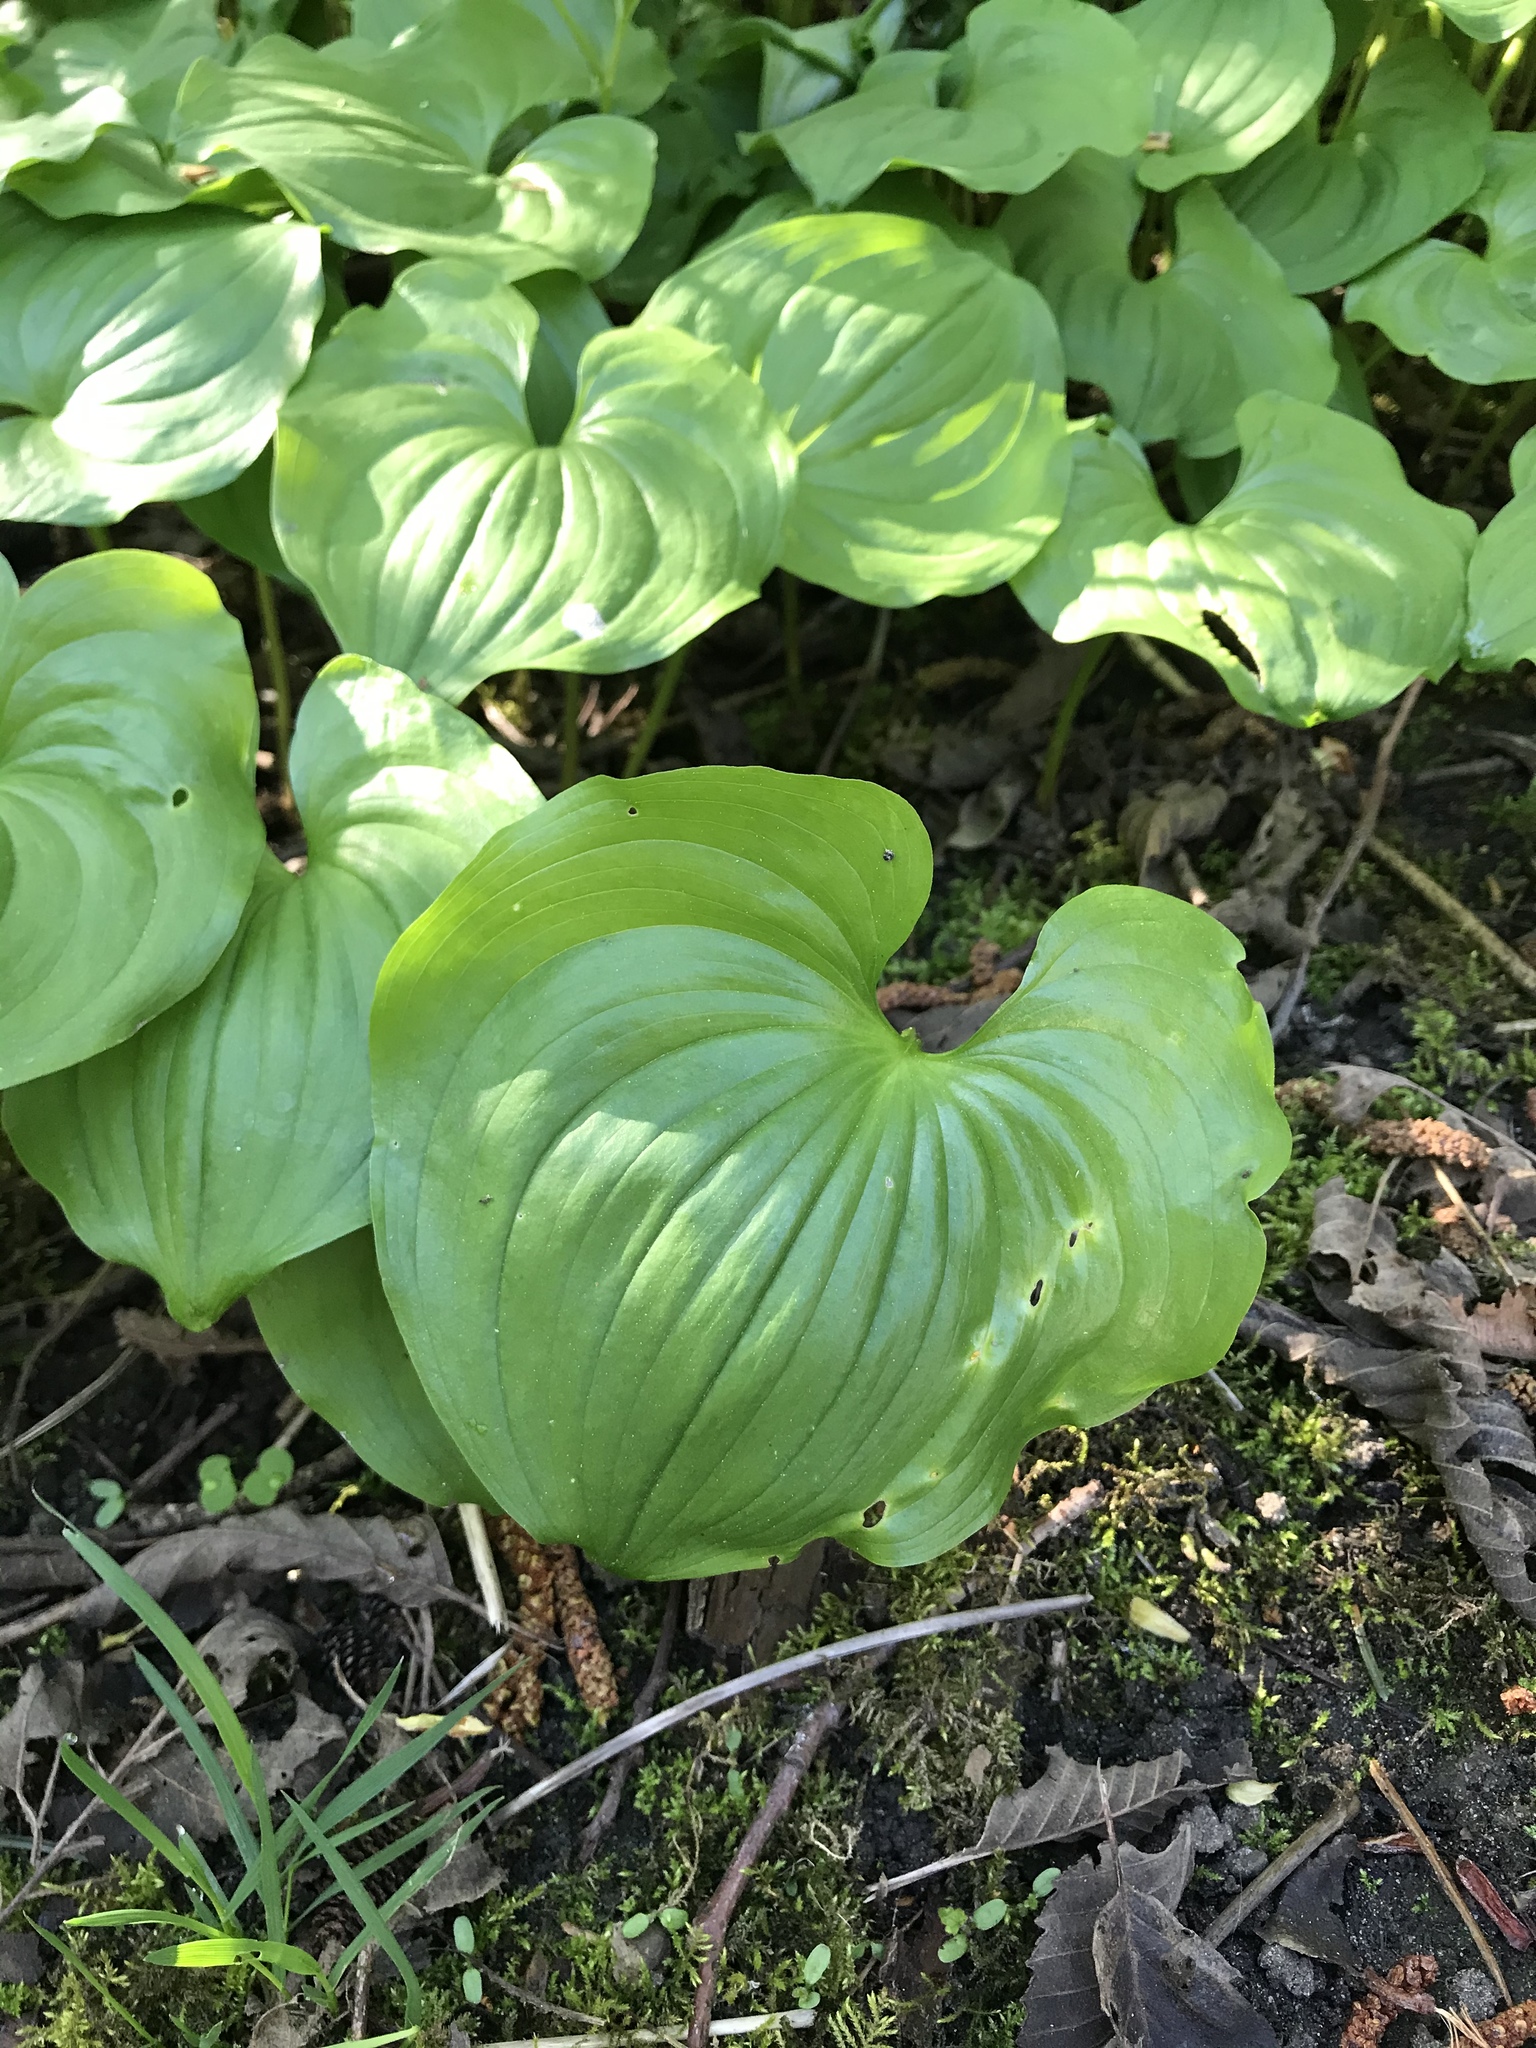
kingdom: Plantae
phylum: Tracheophyta
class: Liliopsida
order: Asparagales
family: Asparagaceae
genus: Maianthemum
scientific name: Maianthemum dilatatum
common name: False lily-of-the-valley
